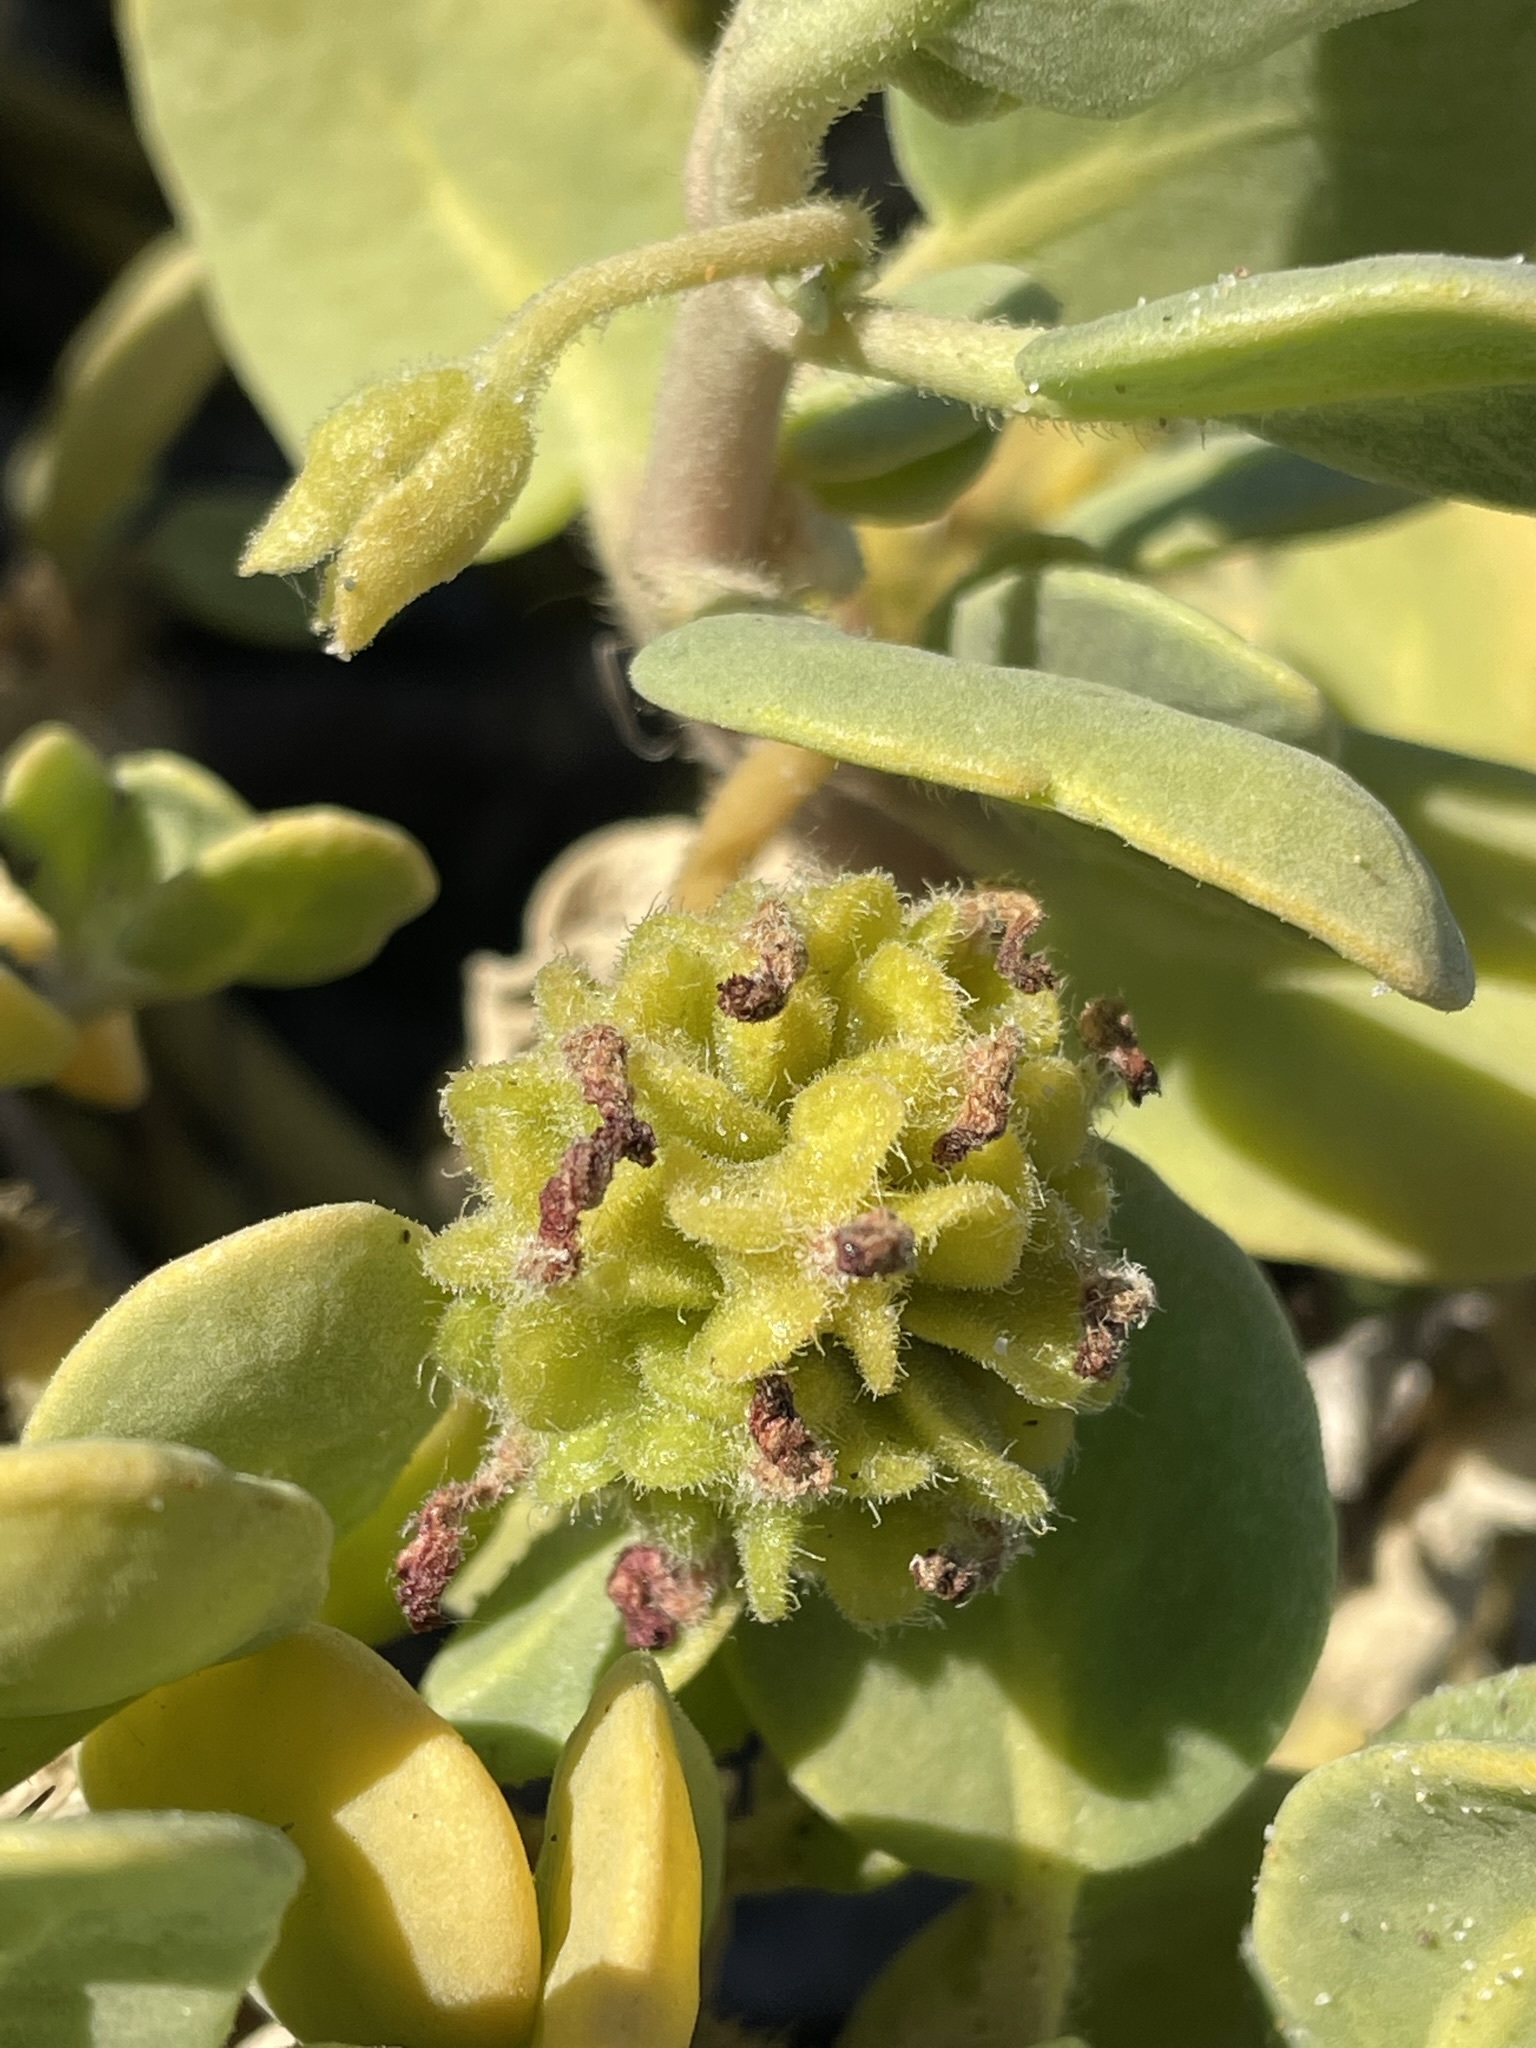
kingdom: Plantae
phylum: Tracheophyta
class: Magnoliopsida
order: Caryophyllales
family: Nyctaginaceae
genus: Abronia
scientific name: Abronia maritima
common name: Red sand-verbena
